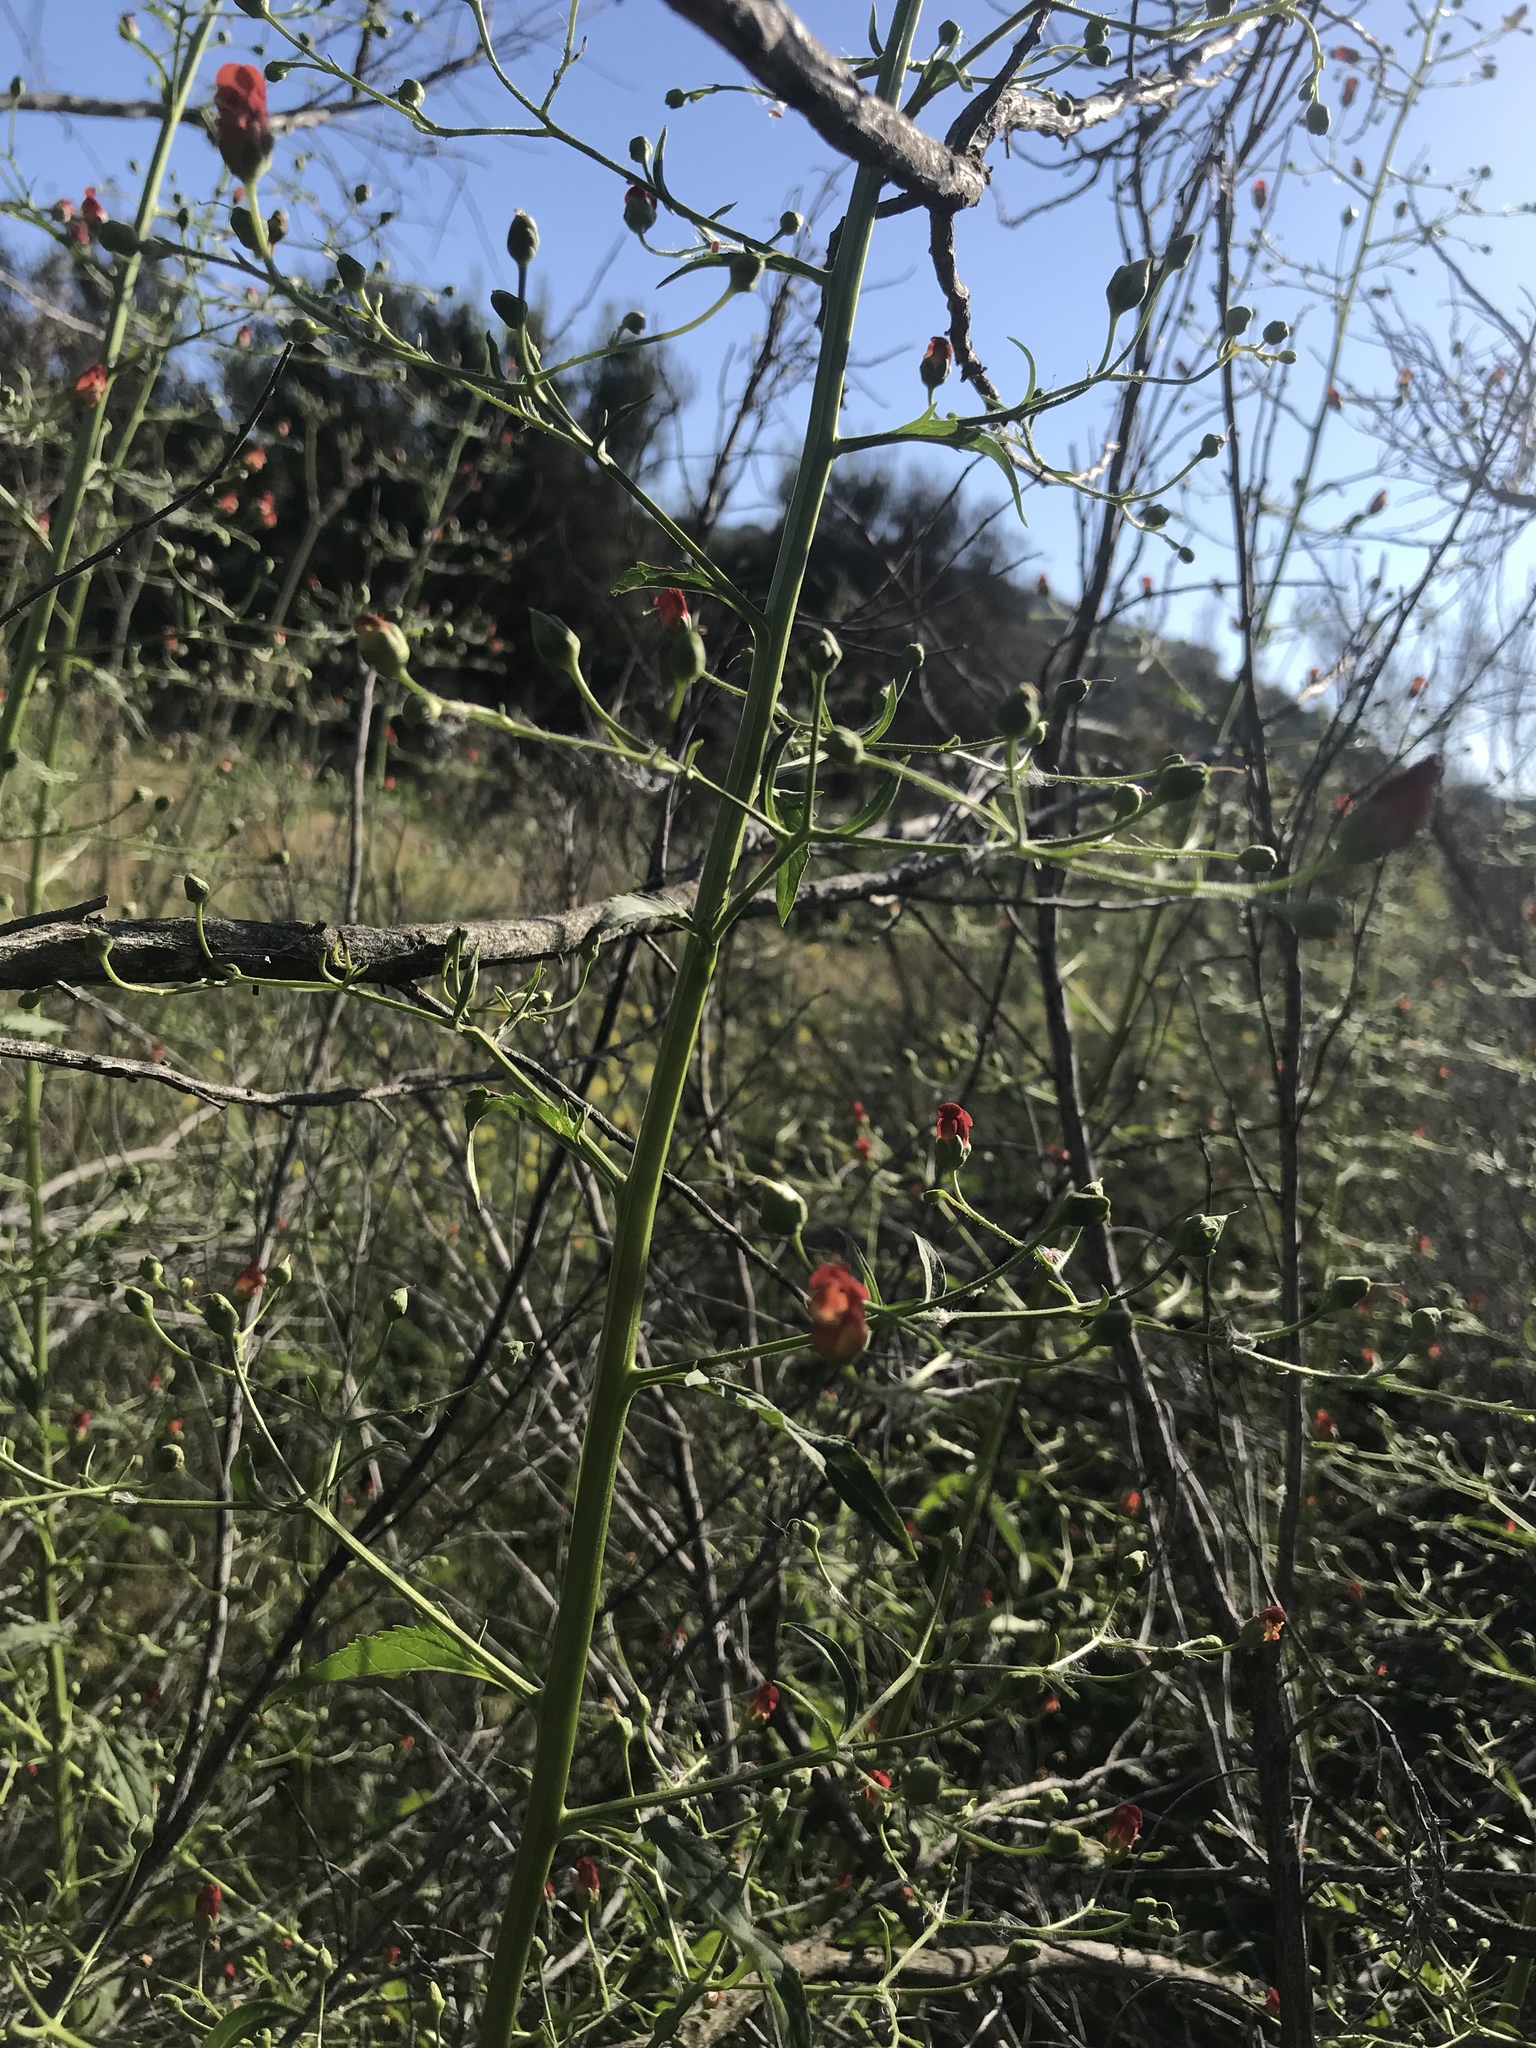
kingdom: Plantae
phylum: Tracheophyta
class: Magnoliopsida
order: Lamiales
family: Scrophulariaceae
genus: Scrophularia
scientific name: Scrophularia californica
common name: California figwort
